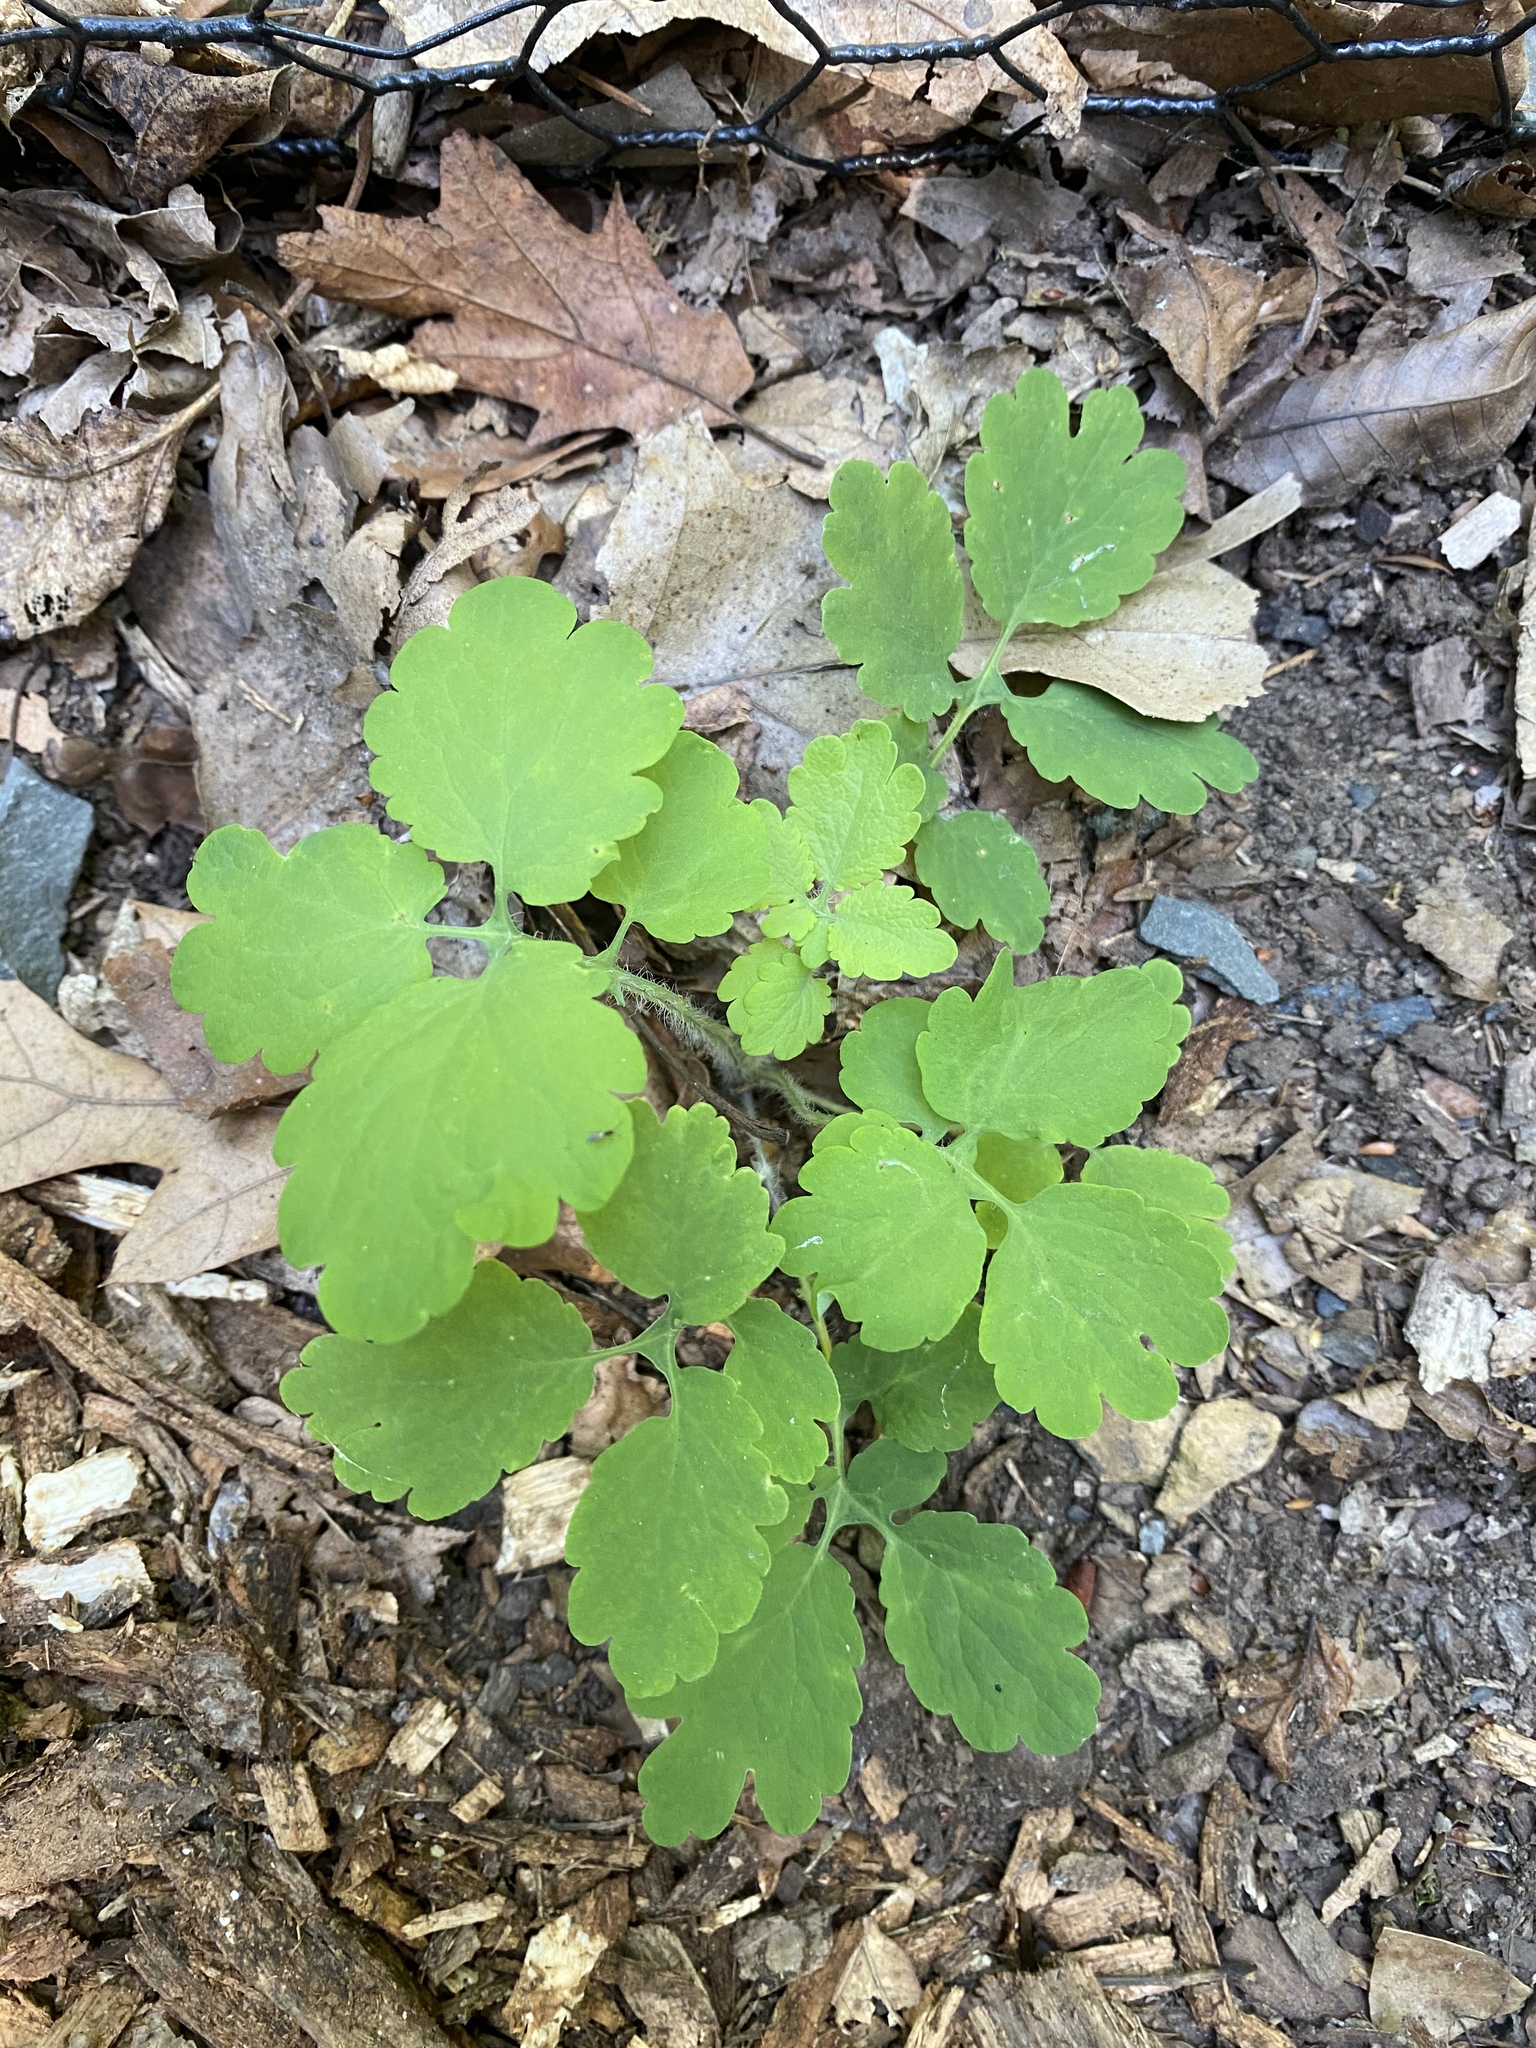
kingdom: Plantae
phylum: Tracheophyta
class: Magnoliopsida
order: Ranunculales
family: Papaveraceae
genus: Chelidonium
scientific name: Chelidonium majus
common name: Greater celandine
